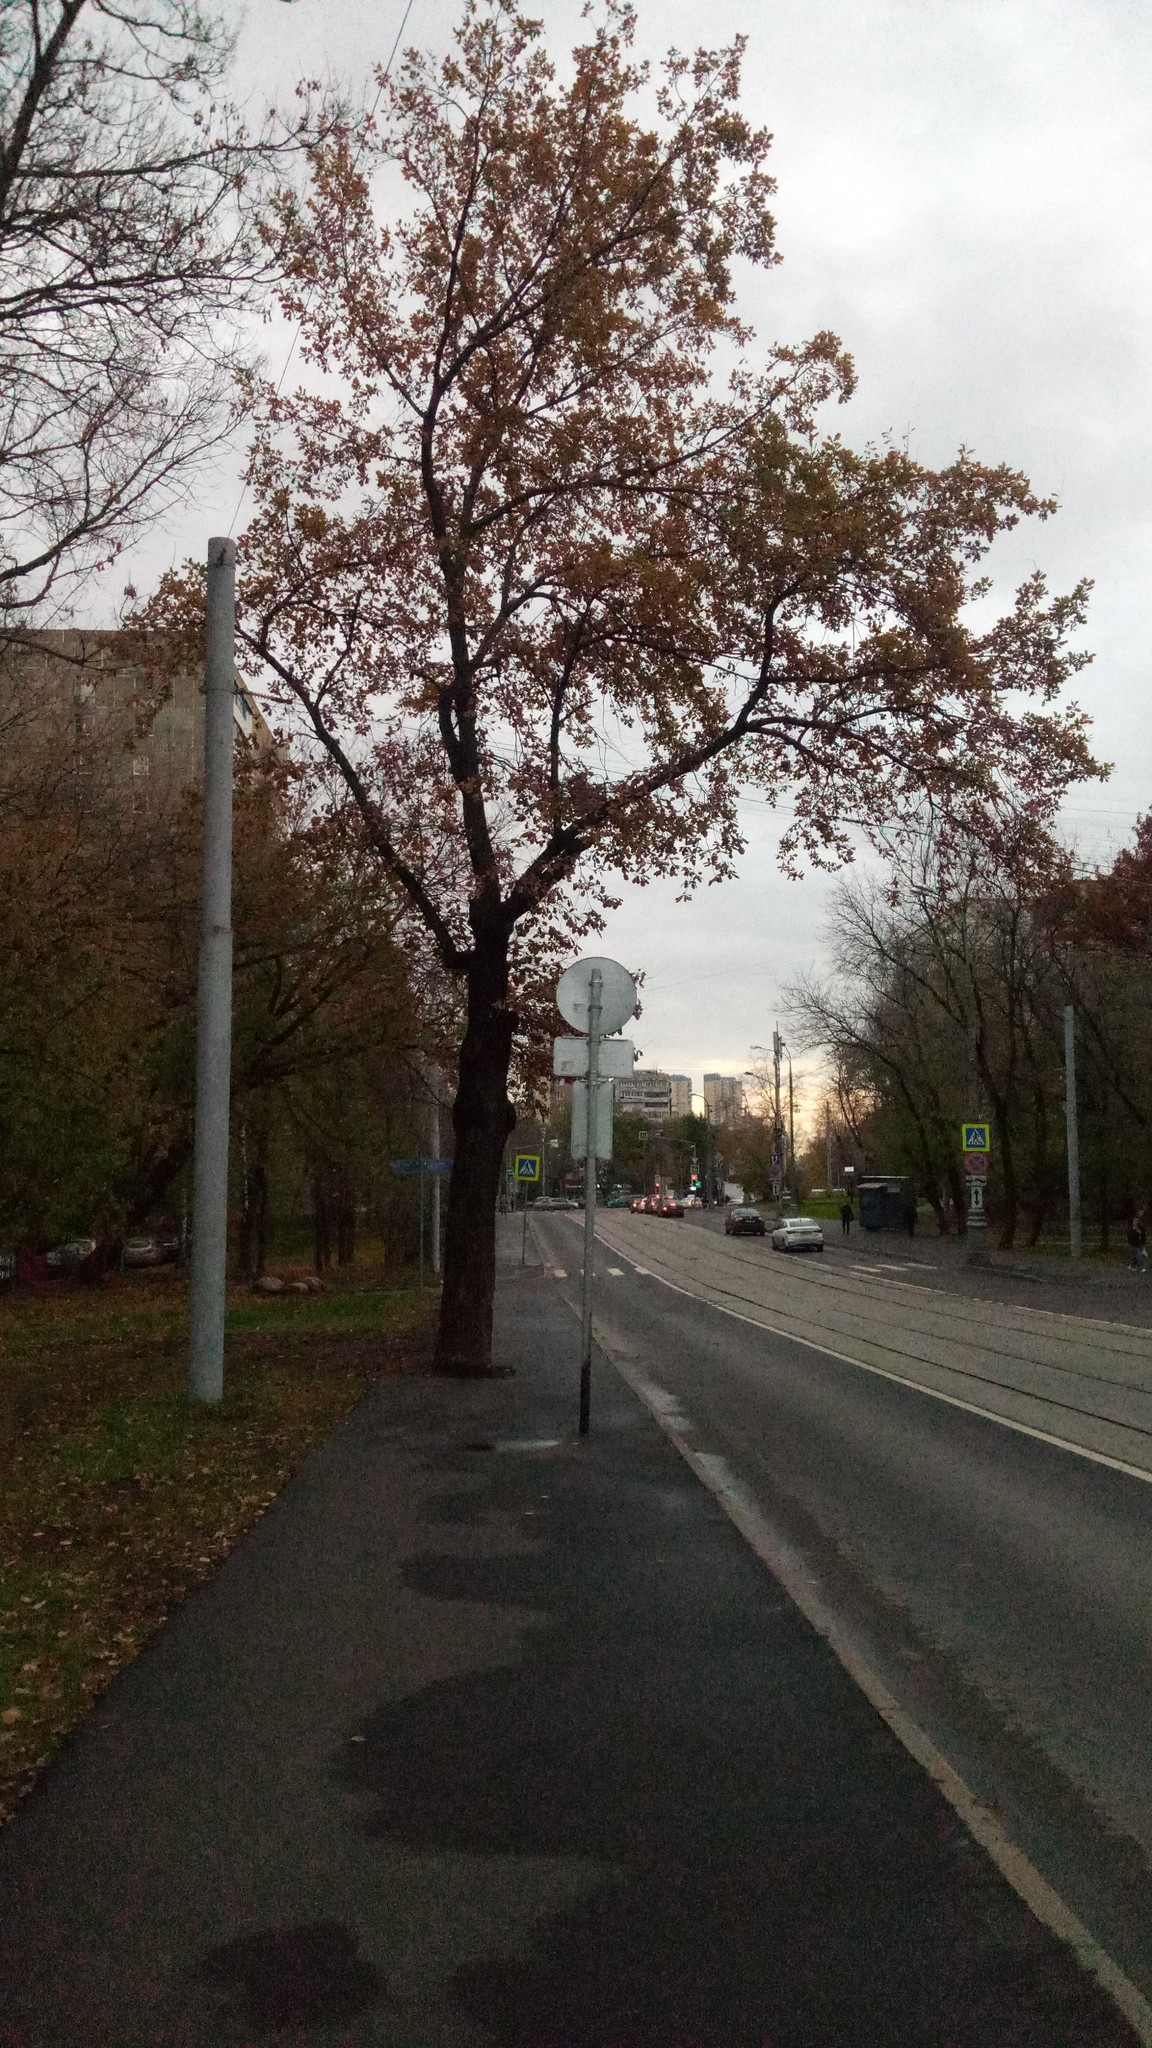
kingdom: Plantae
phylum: Tracheophyta
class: Magnoliopsida
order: Fagales
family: Fagaceae
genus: Quercus
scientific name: Quercus robur
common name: Pedunculate oak
